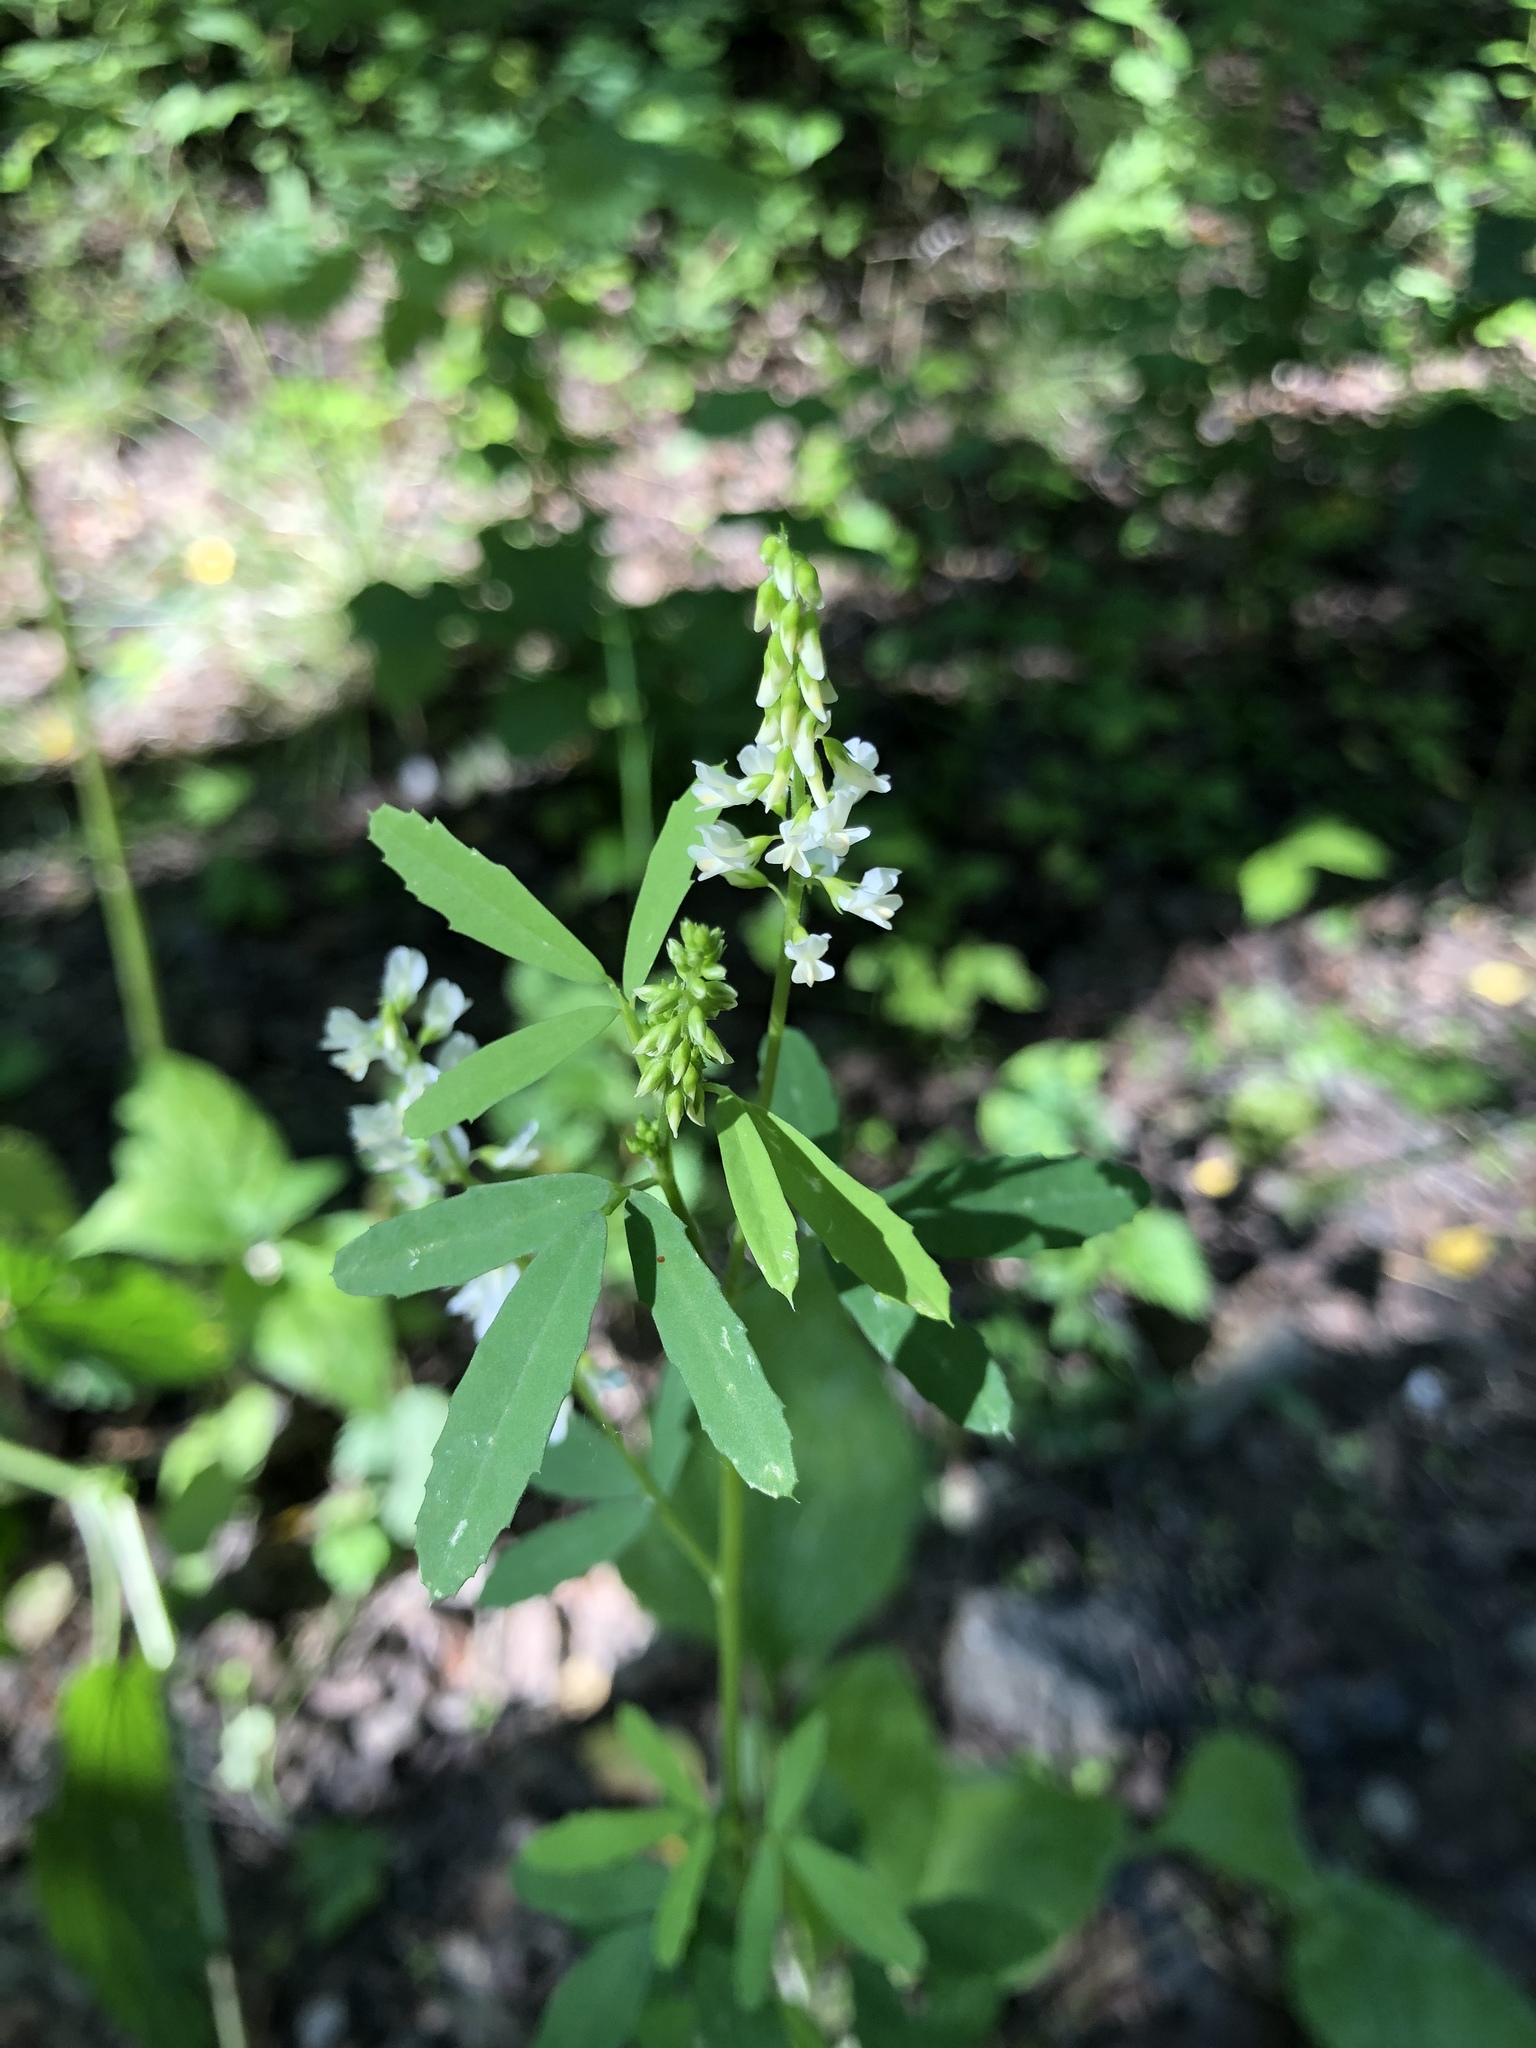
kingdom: Plantae
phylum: Tracheophyta
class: Magnoliopsida
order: Fabales
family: Fabaceae
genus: Melilotus
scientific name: Melilotus albus
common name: White melilot
